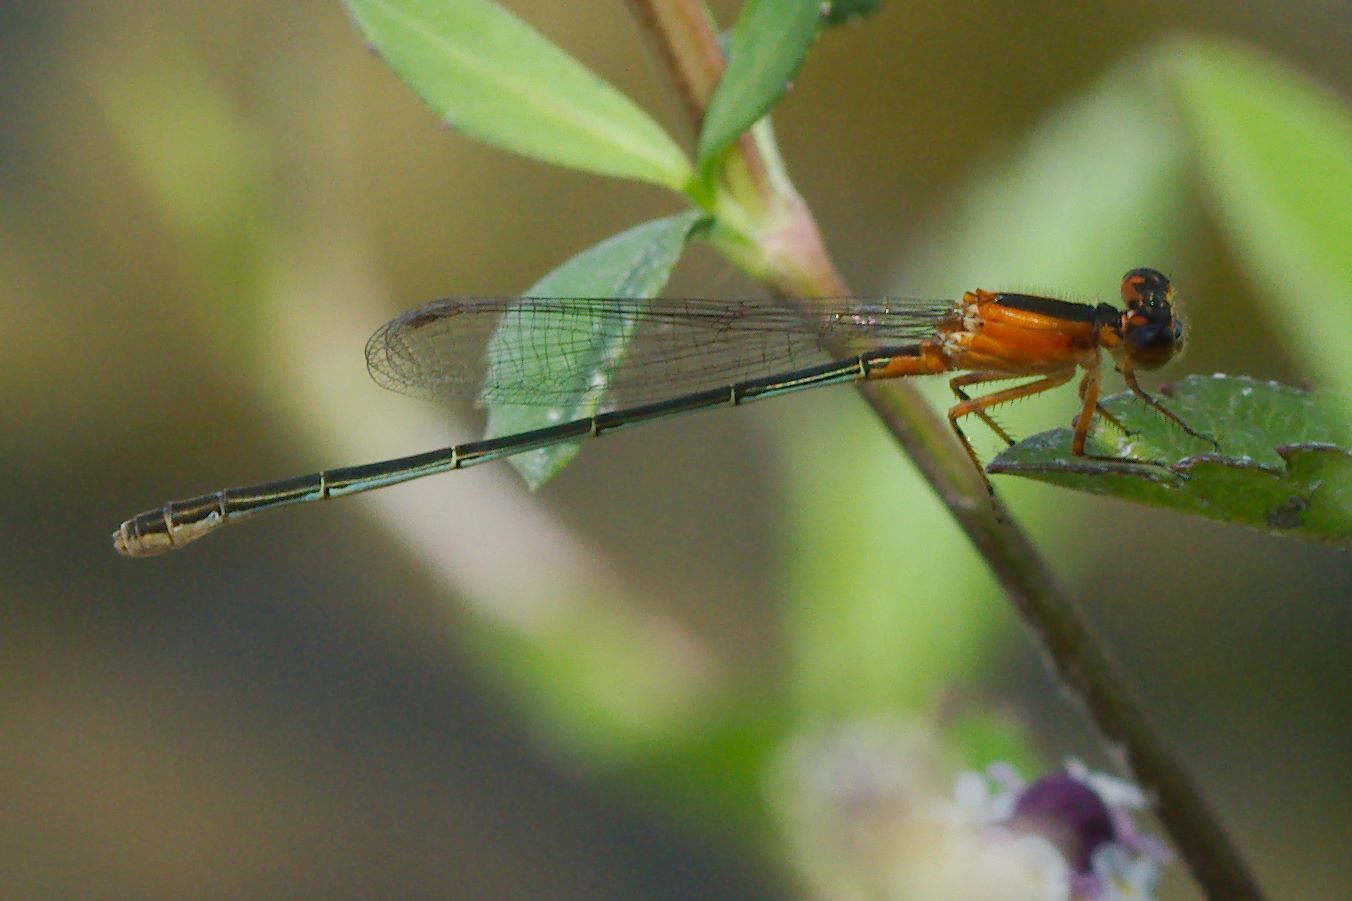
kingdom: Animalia
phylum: Arthropoda
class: Insecta
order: Odonata
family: Coenagrionidae
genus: Ischnura
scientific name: Ischnura ramburii
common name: Rambur's forktail
